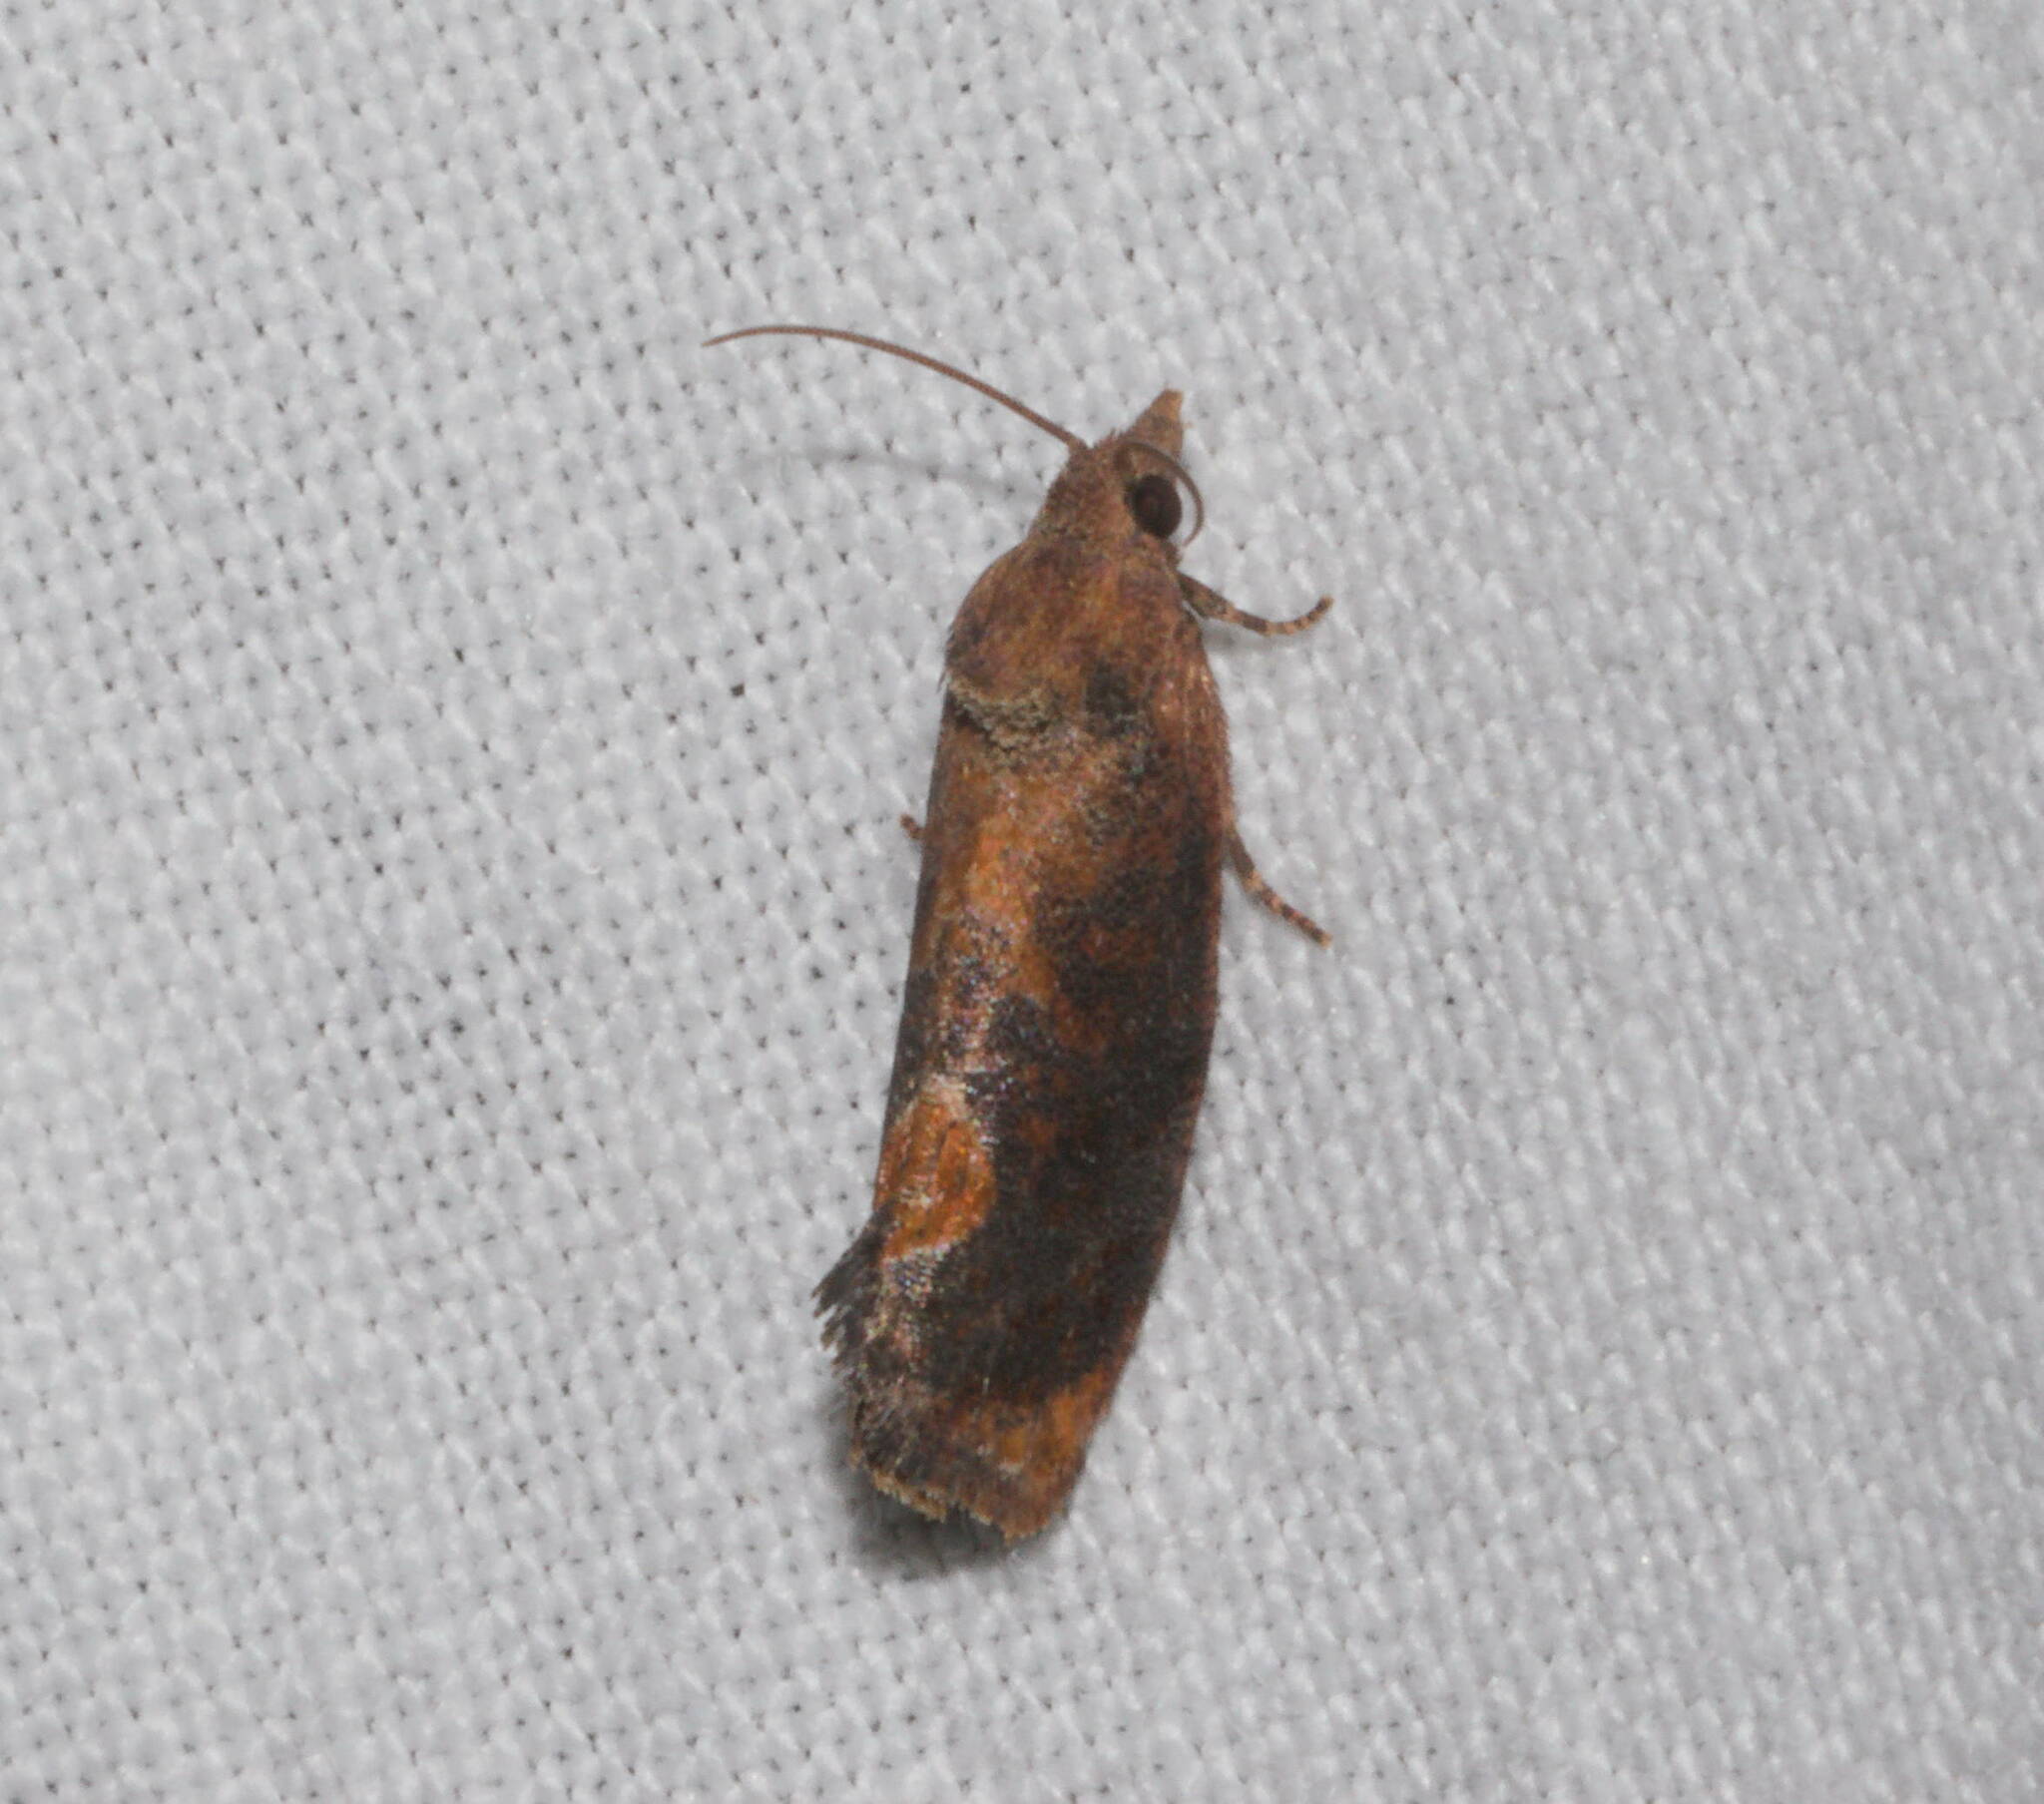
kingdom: Animalia
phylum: Arthropoda
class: Insecta
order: Lepidoptera
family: Tortricidae
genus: Cryptophlebia
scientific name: Cryptophlebia illepida
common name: Moth
